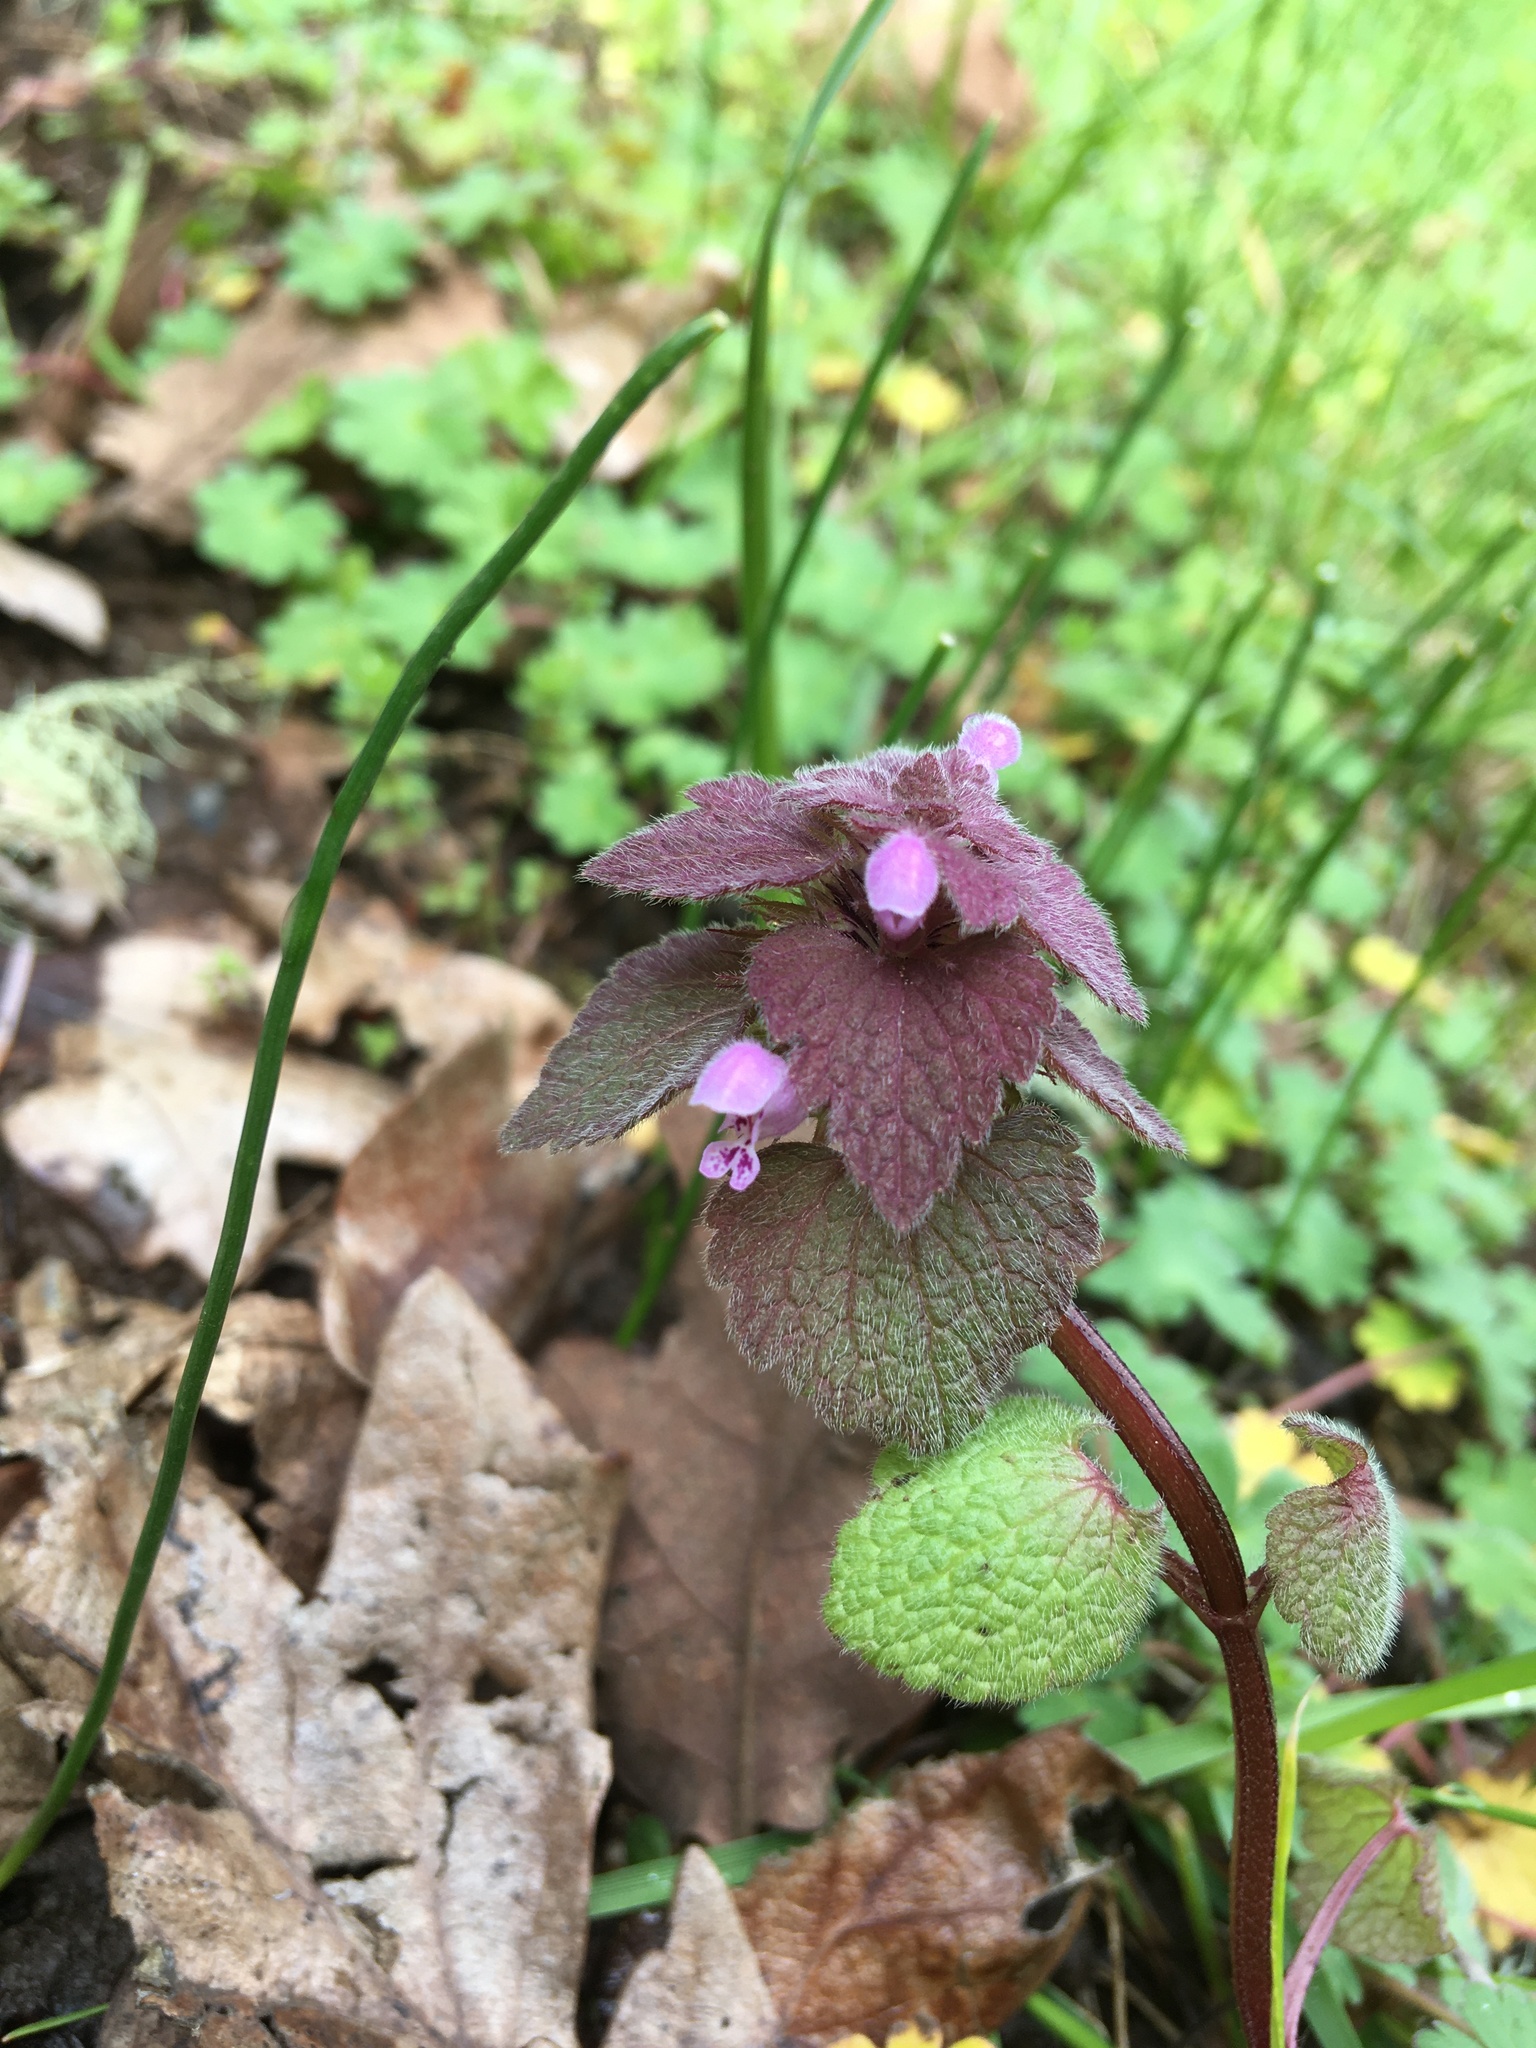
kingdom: Plantae
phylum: Tracheophyta
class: Magnoliopsida
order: Lamiales
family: Lamiaceae
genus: Lamium
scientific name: Lamium purpureum
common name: Red dead-nettle
